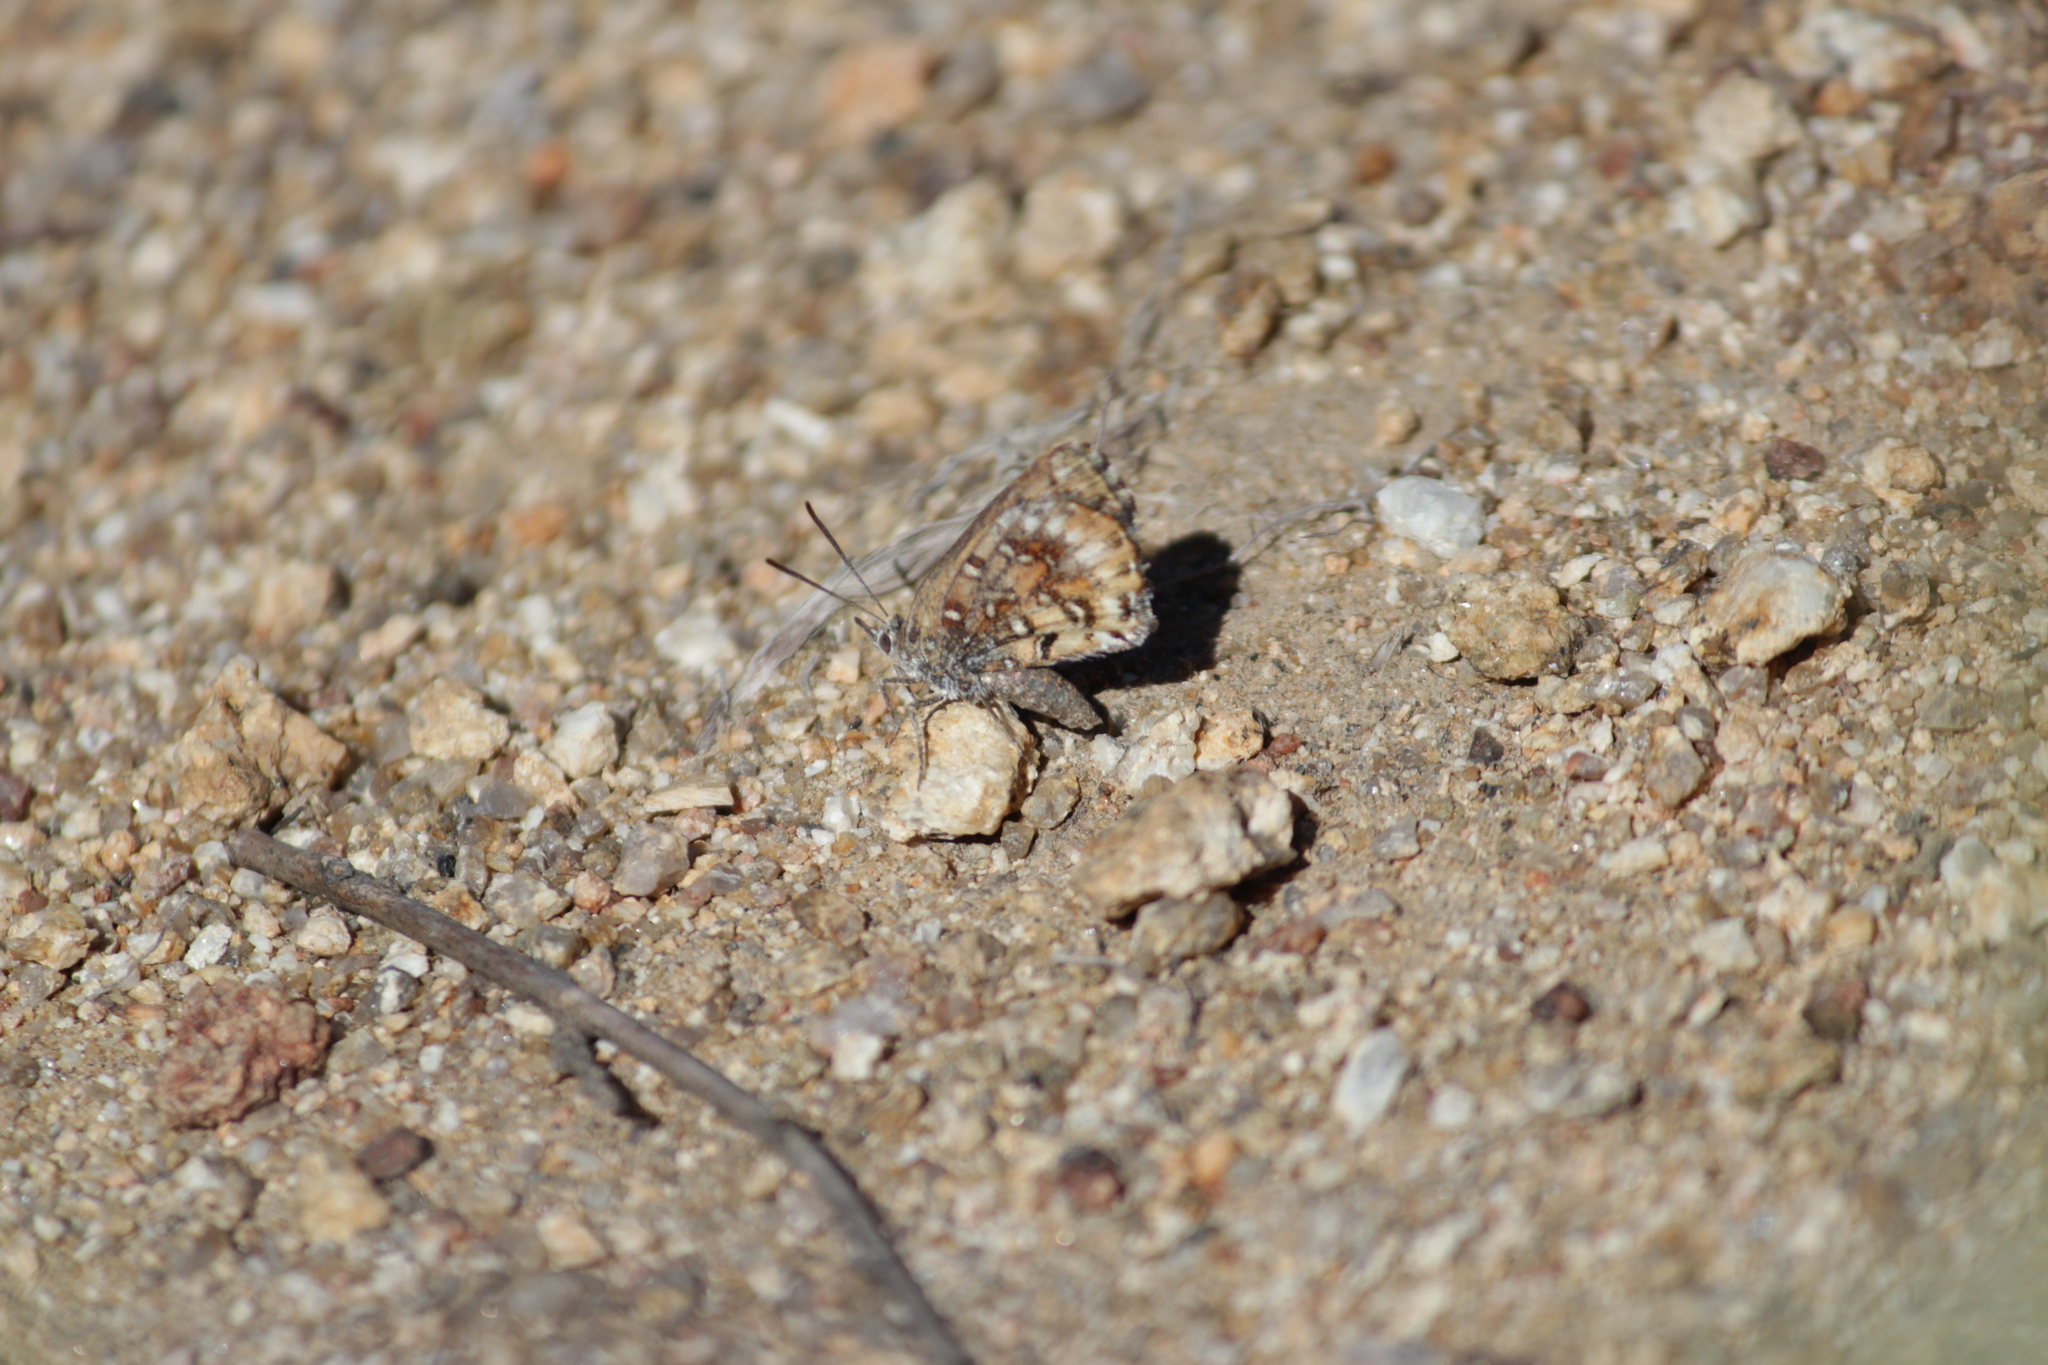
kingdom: Animalia
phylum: Arthropoda
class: Insecta
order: Lepidoptera
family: Lycaenidae
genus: Aloeides
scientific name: Aloeides pierus
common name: Dull copper
